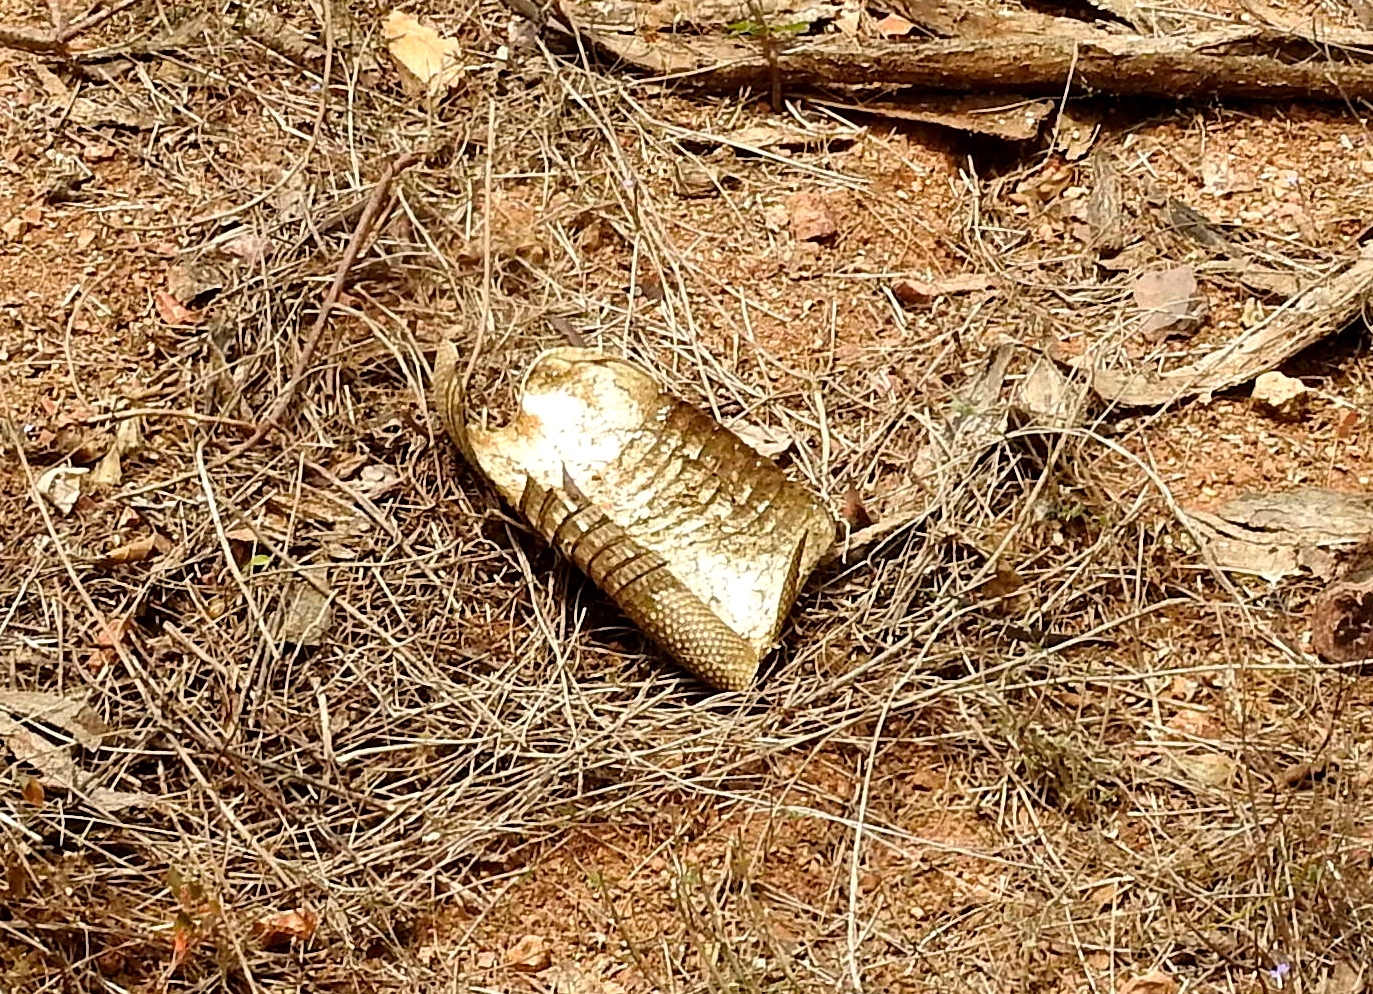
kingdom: Animalia
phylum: Chordata
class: Mammalia
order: Cingulata
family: Dasypodidae
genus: Dasypus
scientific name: Dasypus novemcinctus
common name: Nine-banded armadillo
